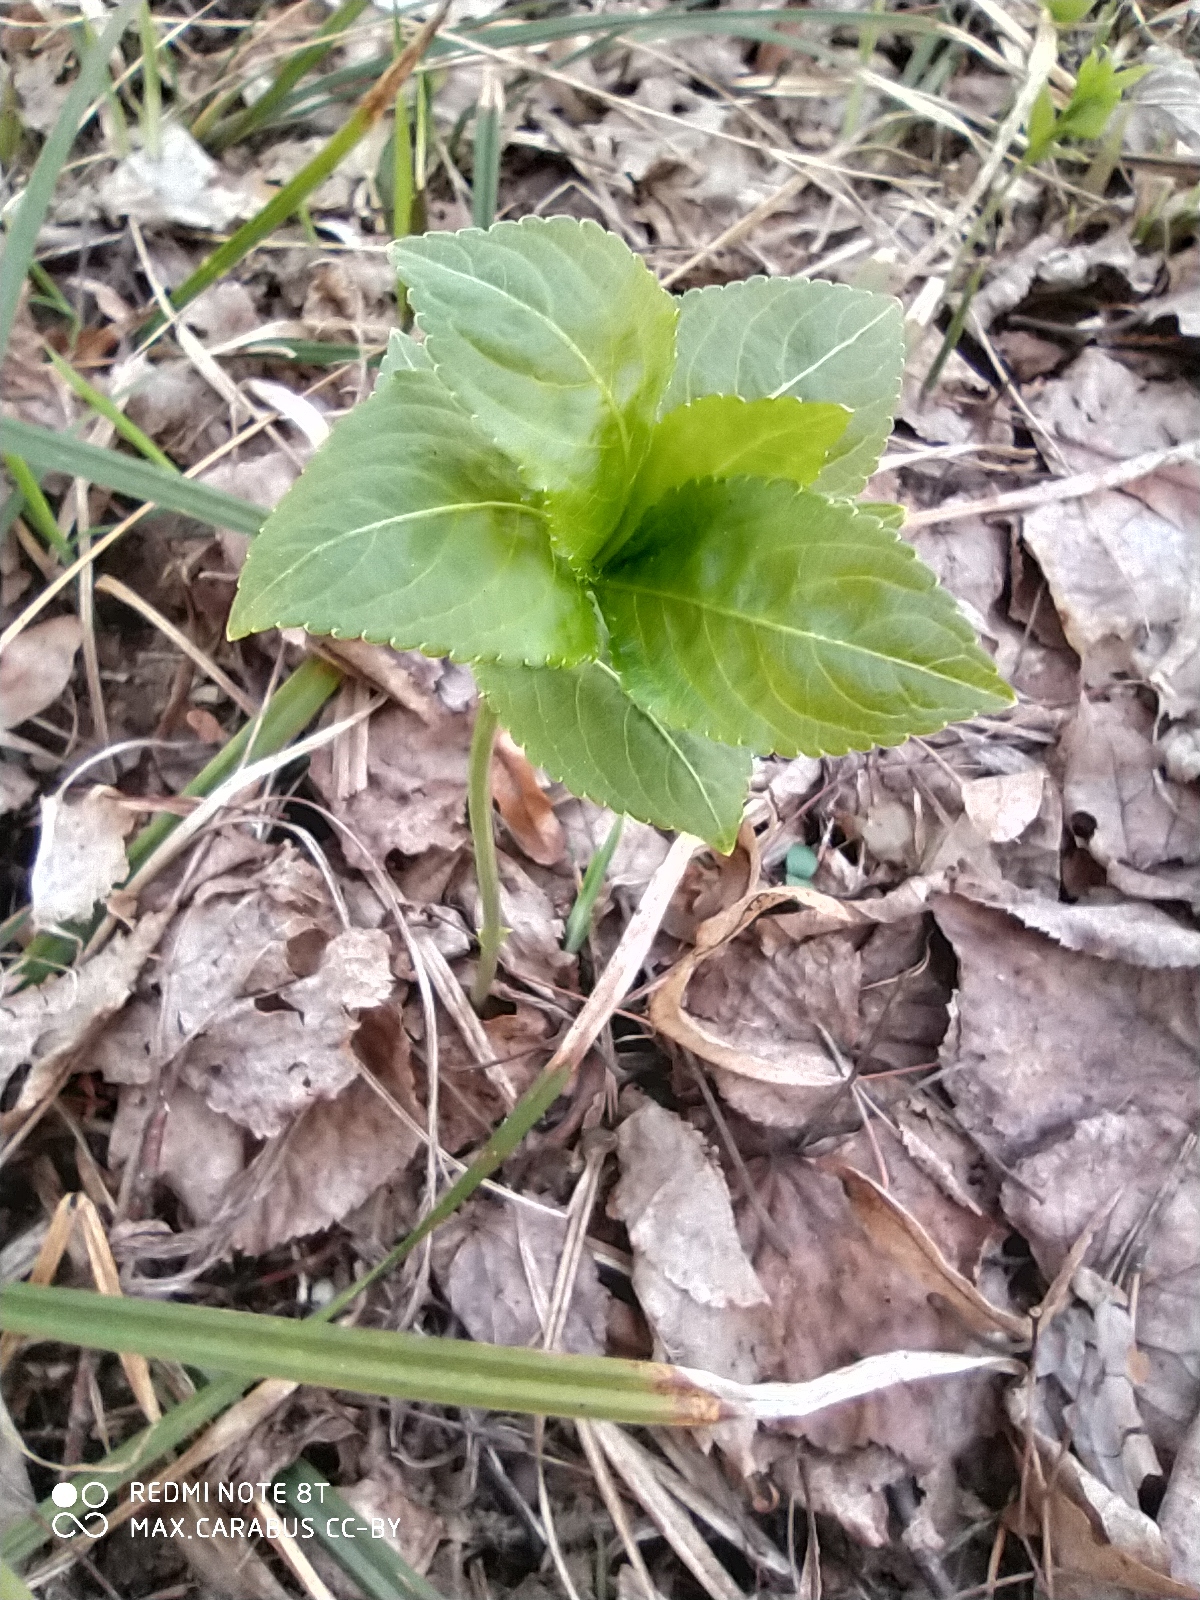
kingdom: Plantae
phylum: Tracheophyta
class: Magnoliopsida
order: Malpighiales
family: Euphorbiaceae
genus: Mercurialis
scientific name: Mercurialis perennis
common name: Dog mercury
